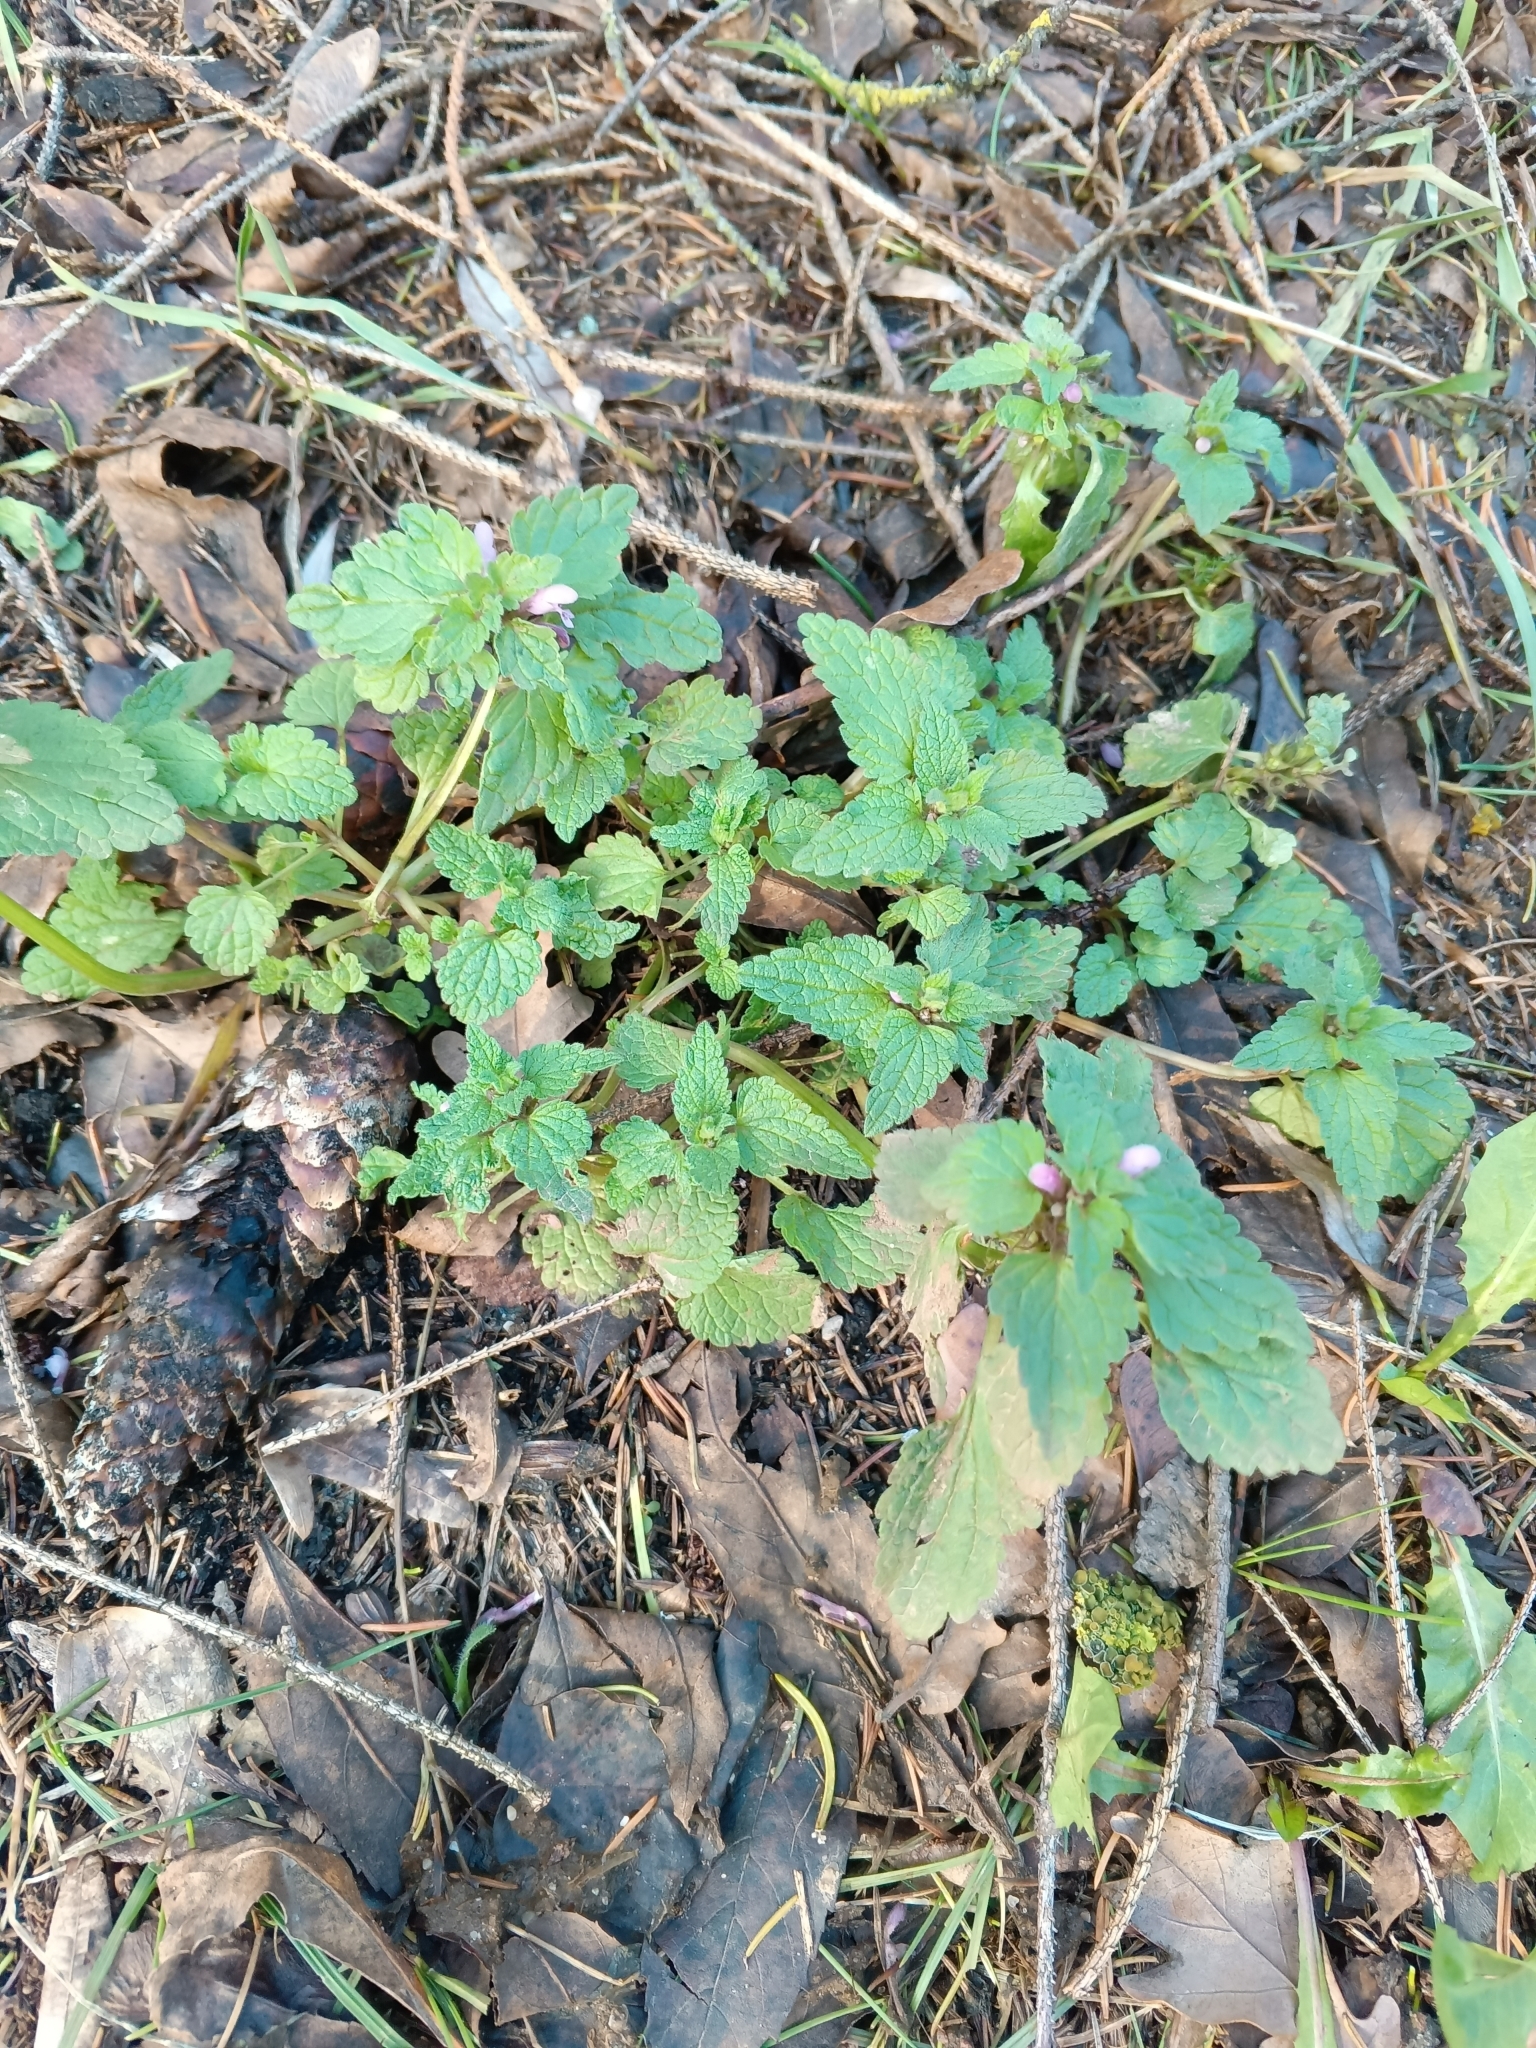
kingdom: Plantae
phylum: Tracheophyta
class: Magnoliopsida
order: Lamiales
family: Lamiaceae
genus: Lamium
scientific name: Lamium purpureum
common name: Red dead-nettle
